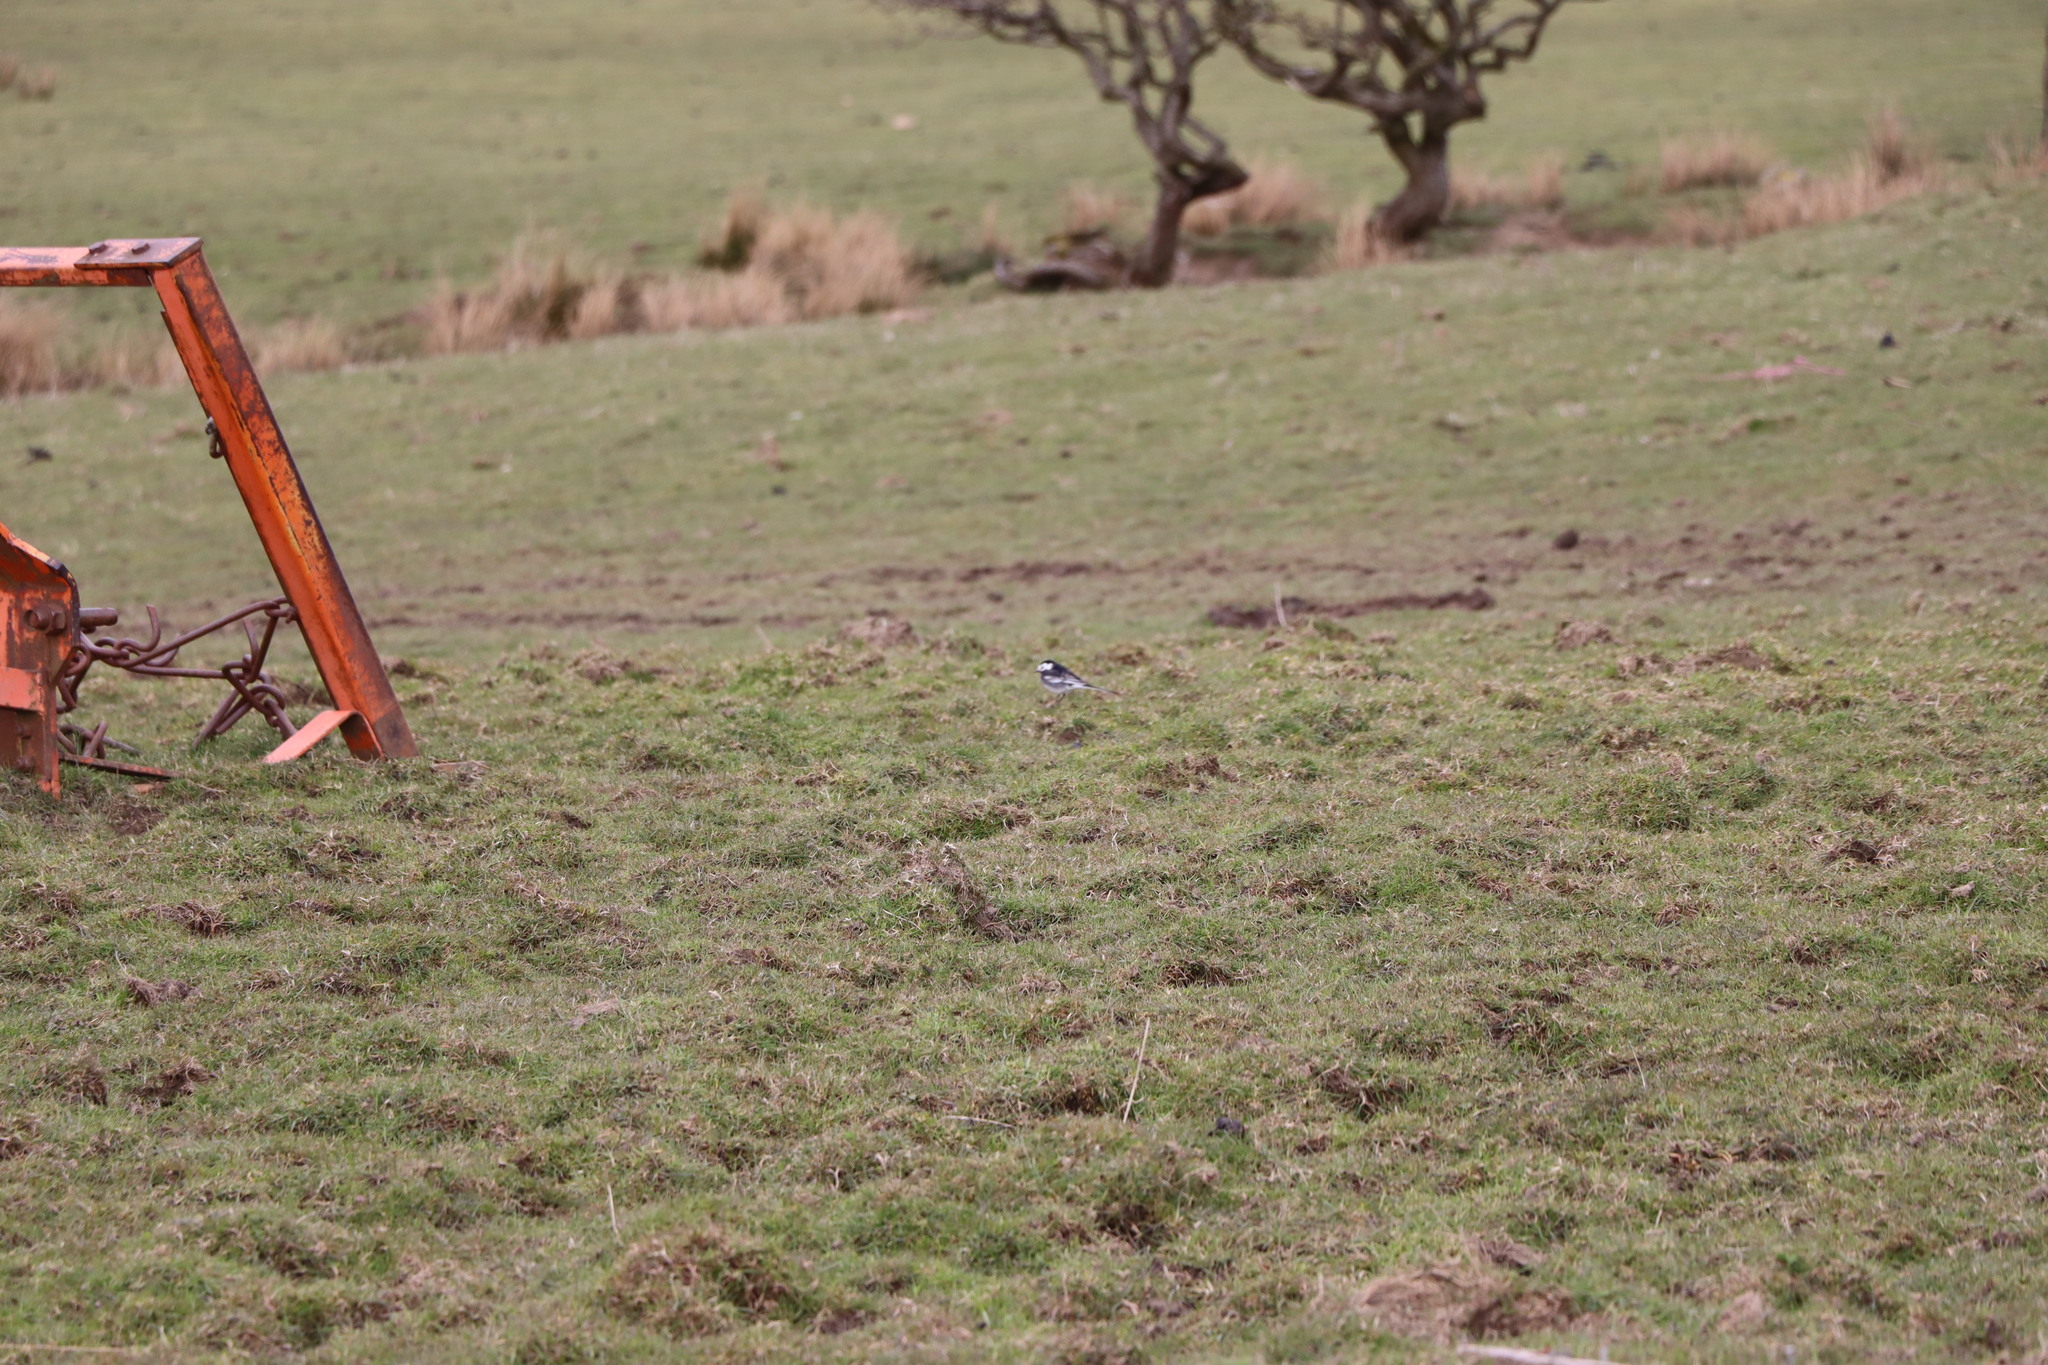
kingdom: Animalia
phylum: Chordata
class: Aves
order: Passeriformes
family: Motacillidae
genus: Motacilla
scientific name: Motacilla alba
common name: White wagtail
